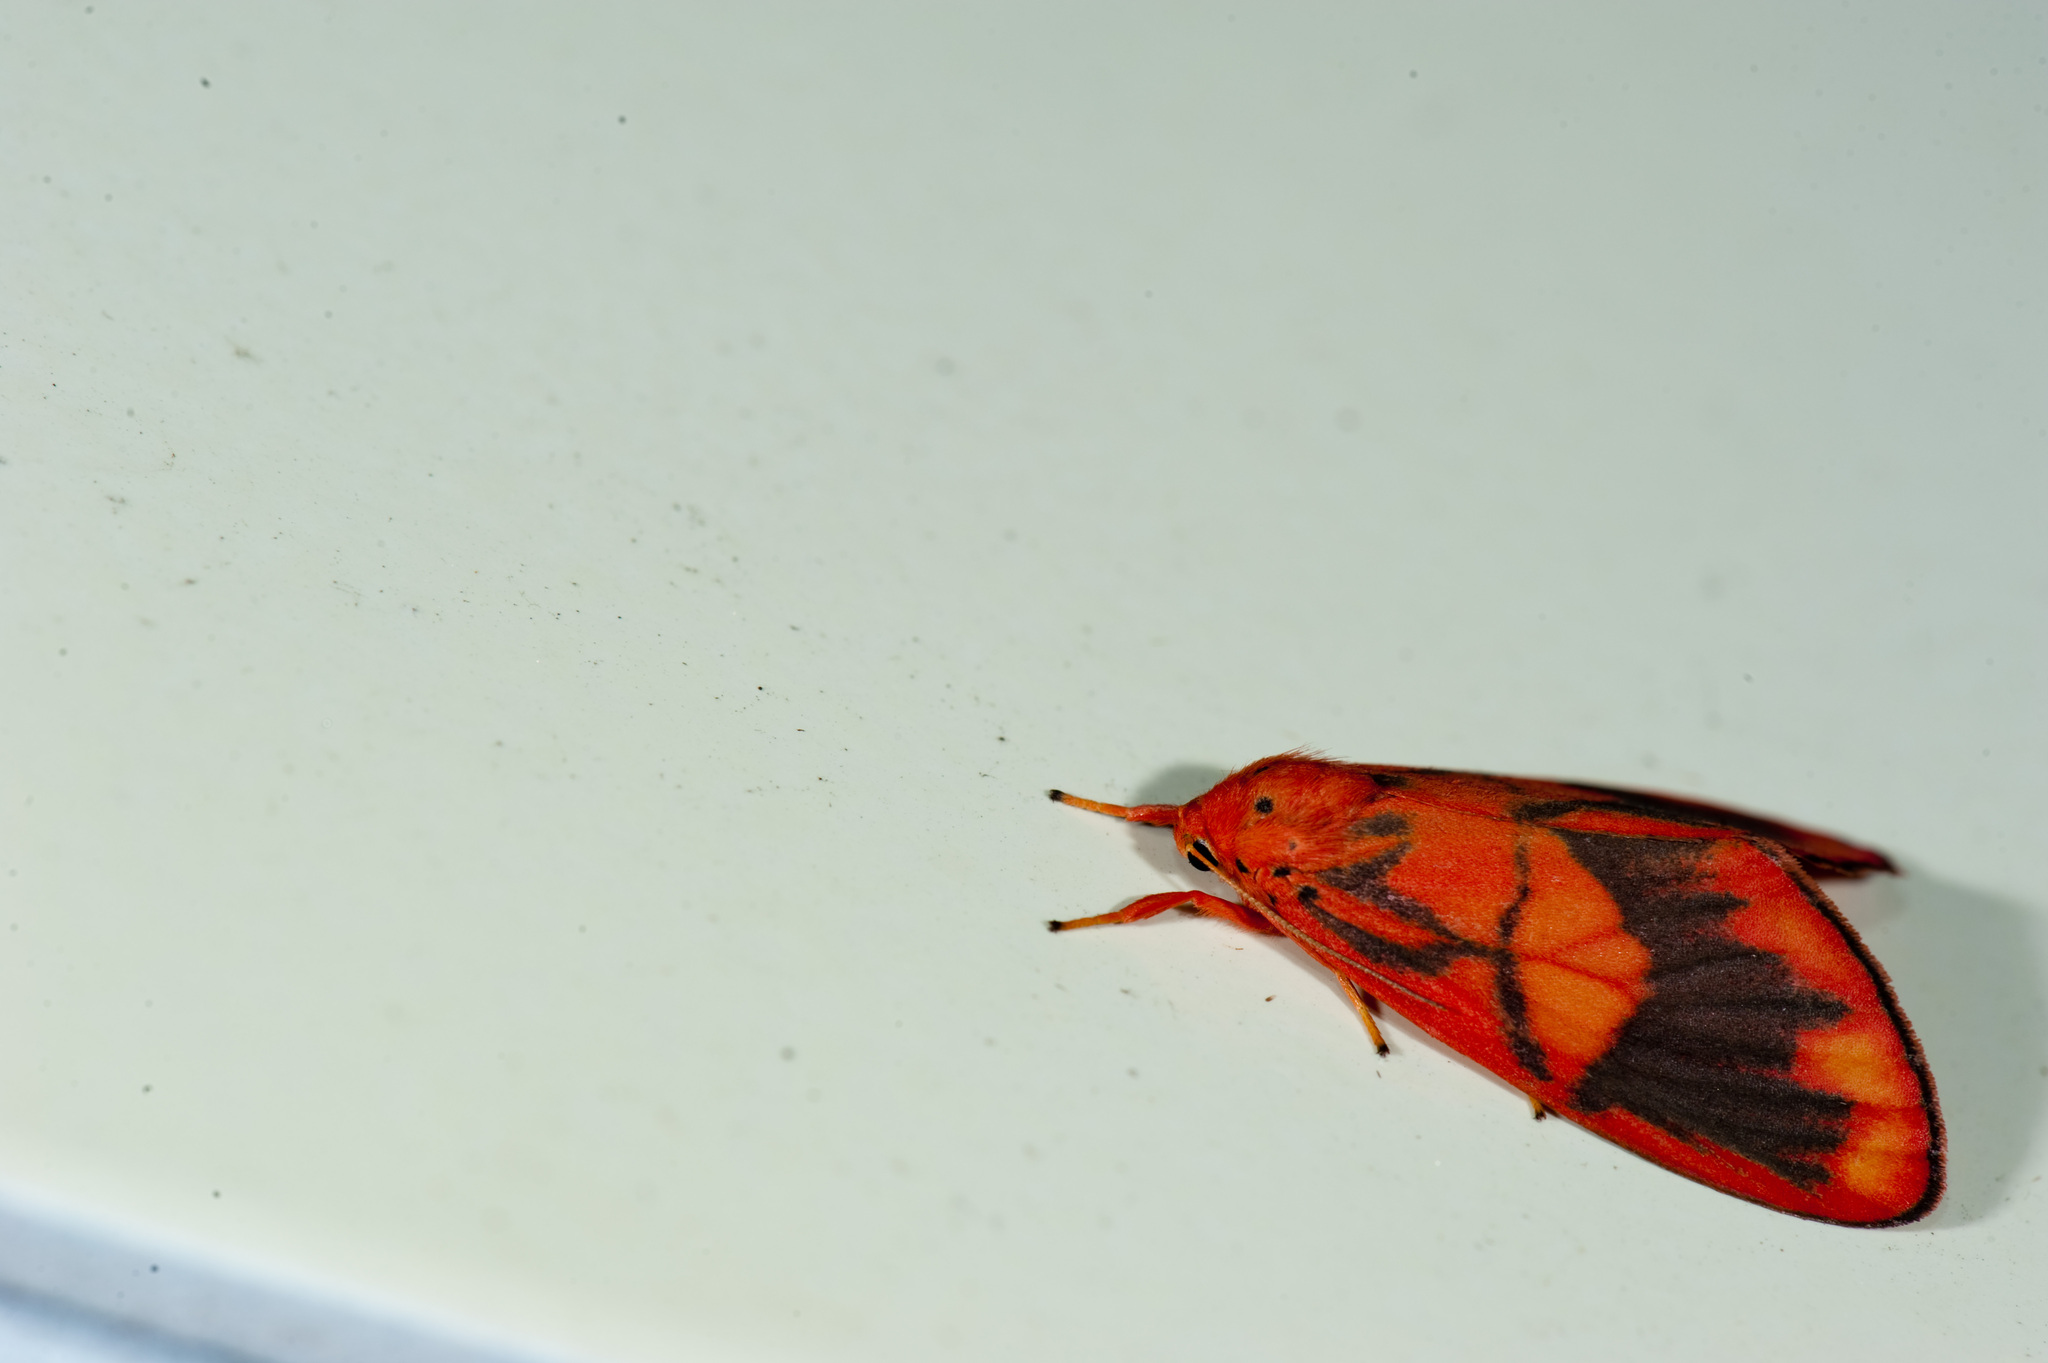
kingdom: Animalia
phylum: Arthropoda
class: Insecta
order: Lepidoptera
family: Erebidae
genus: Matsumursine
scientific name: Matsumursine horishanella
